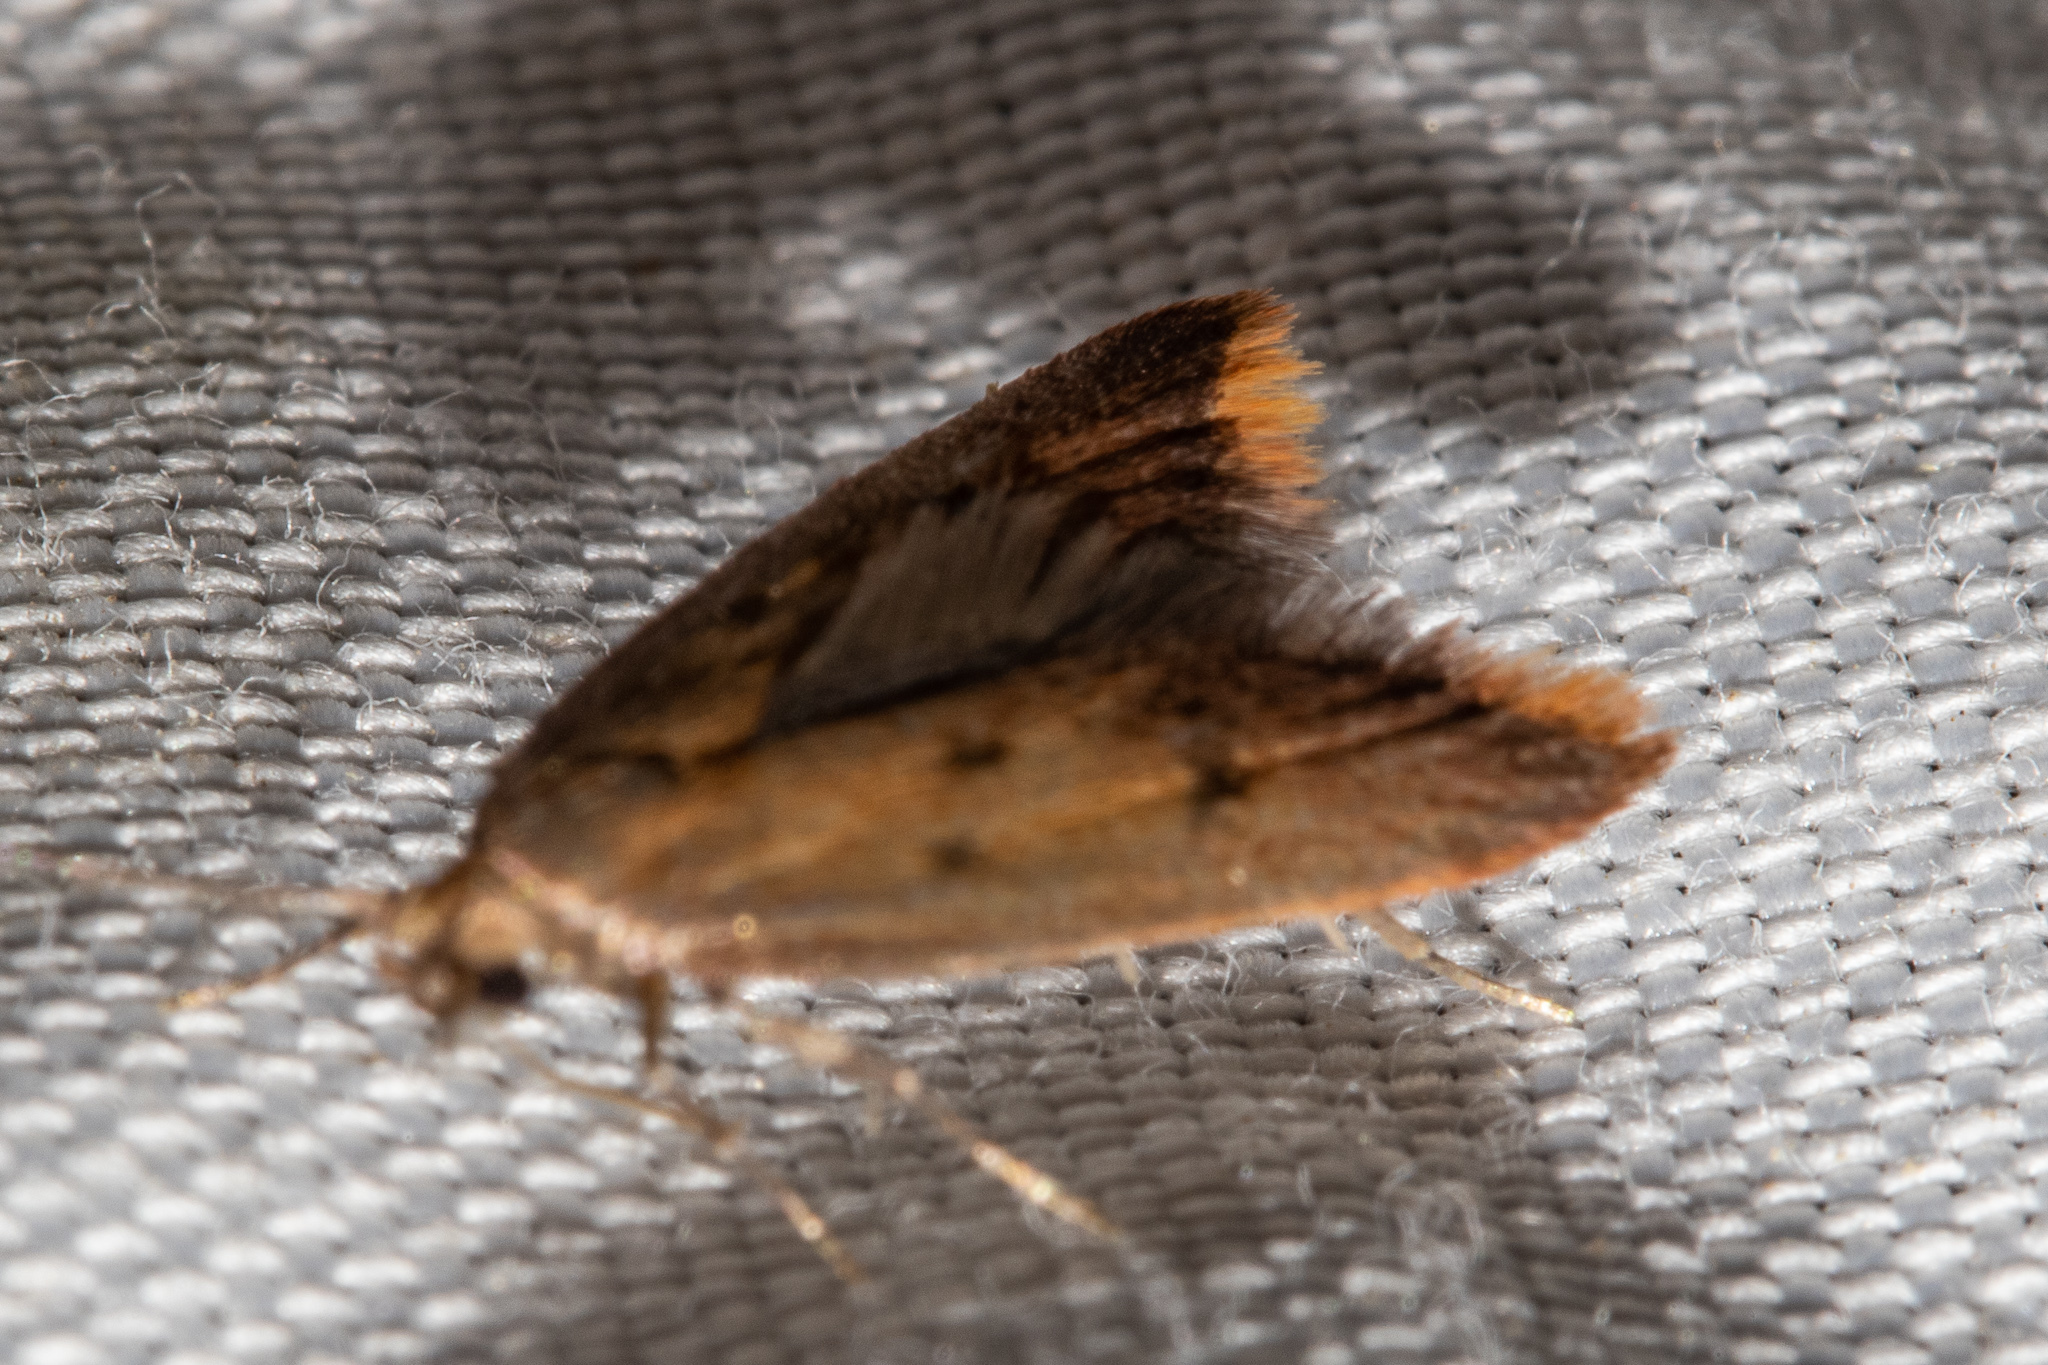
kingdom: Animalia
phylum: Arthropoda
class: Insecta
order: Lepidoptera
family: Oecophoridae
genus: Tachystola
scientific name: Tachystola acroxantha
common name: Ruddy streak
